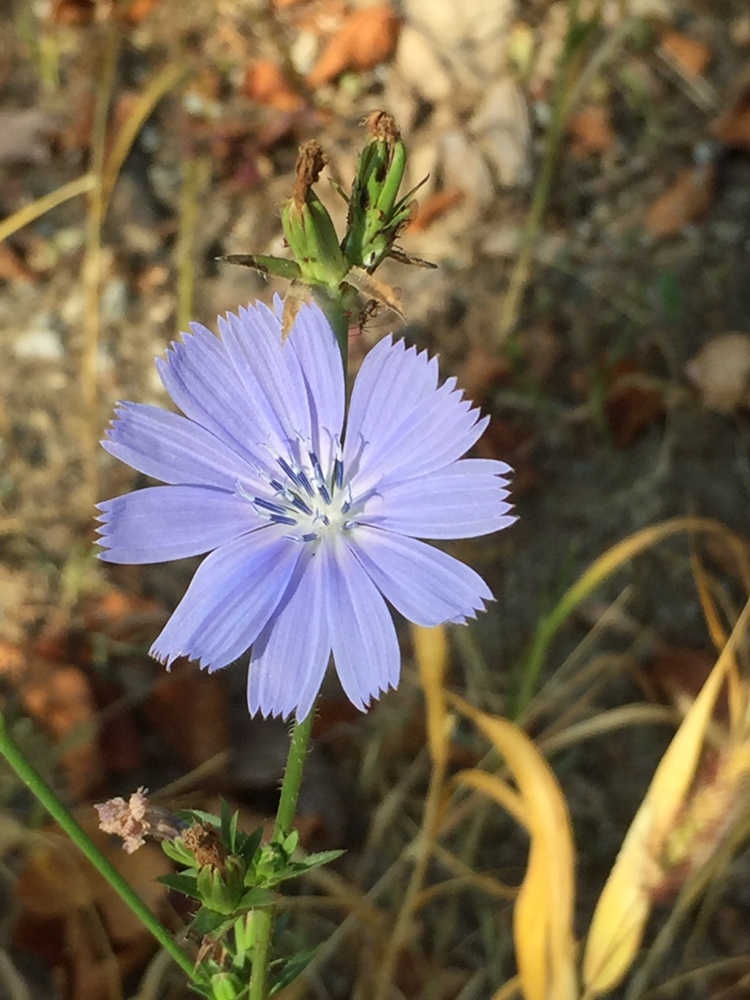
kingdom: Plantae
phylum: Tracheophyta
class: Magnoliopsida
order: Asterales
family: Asteraceae
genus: Cichorium
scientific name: Cichorium intybus
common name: Chicory
